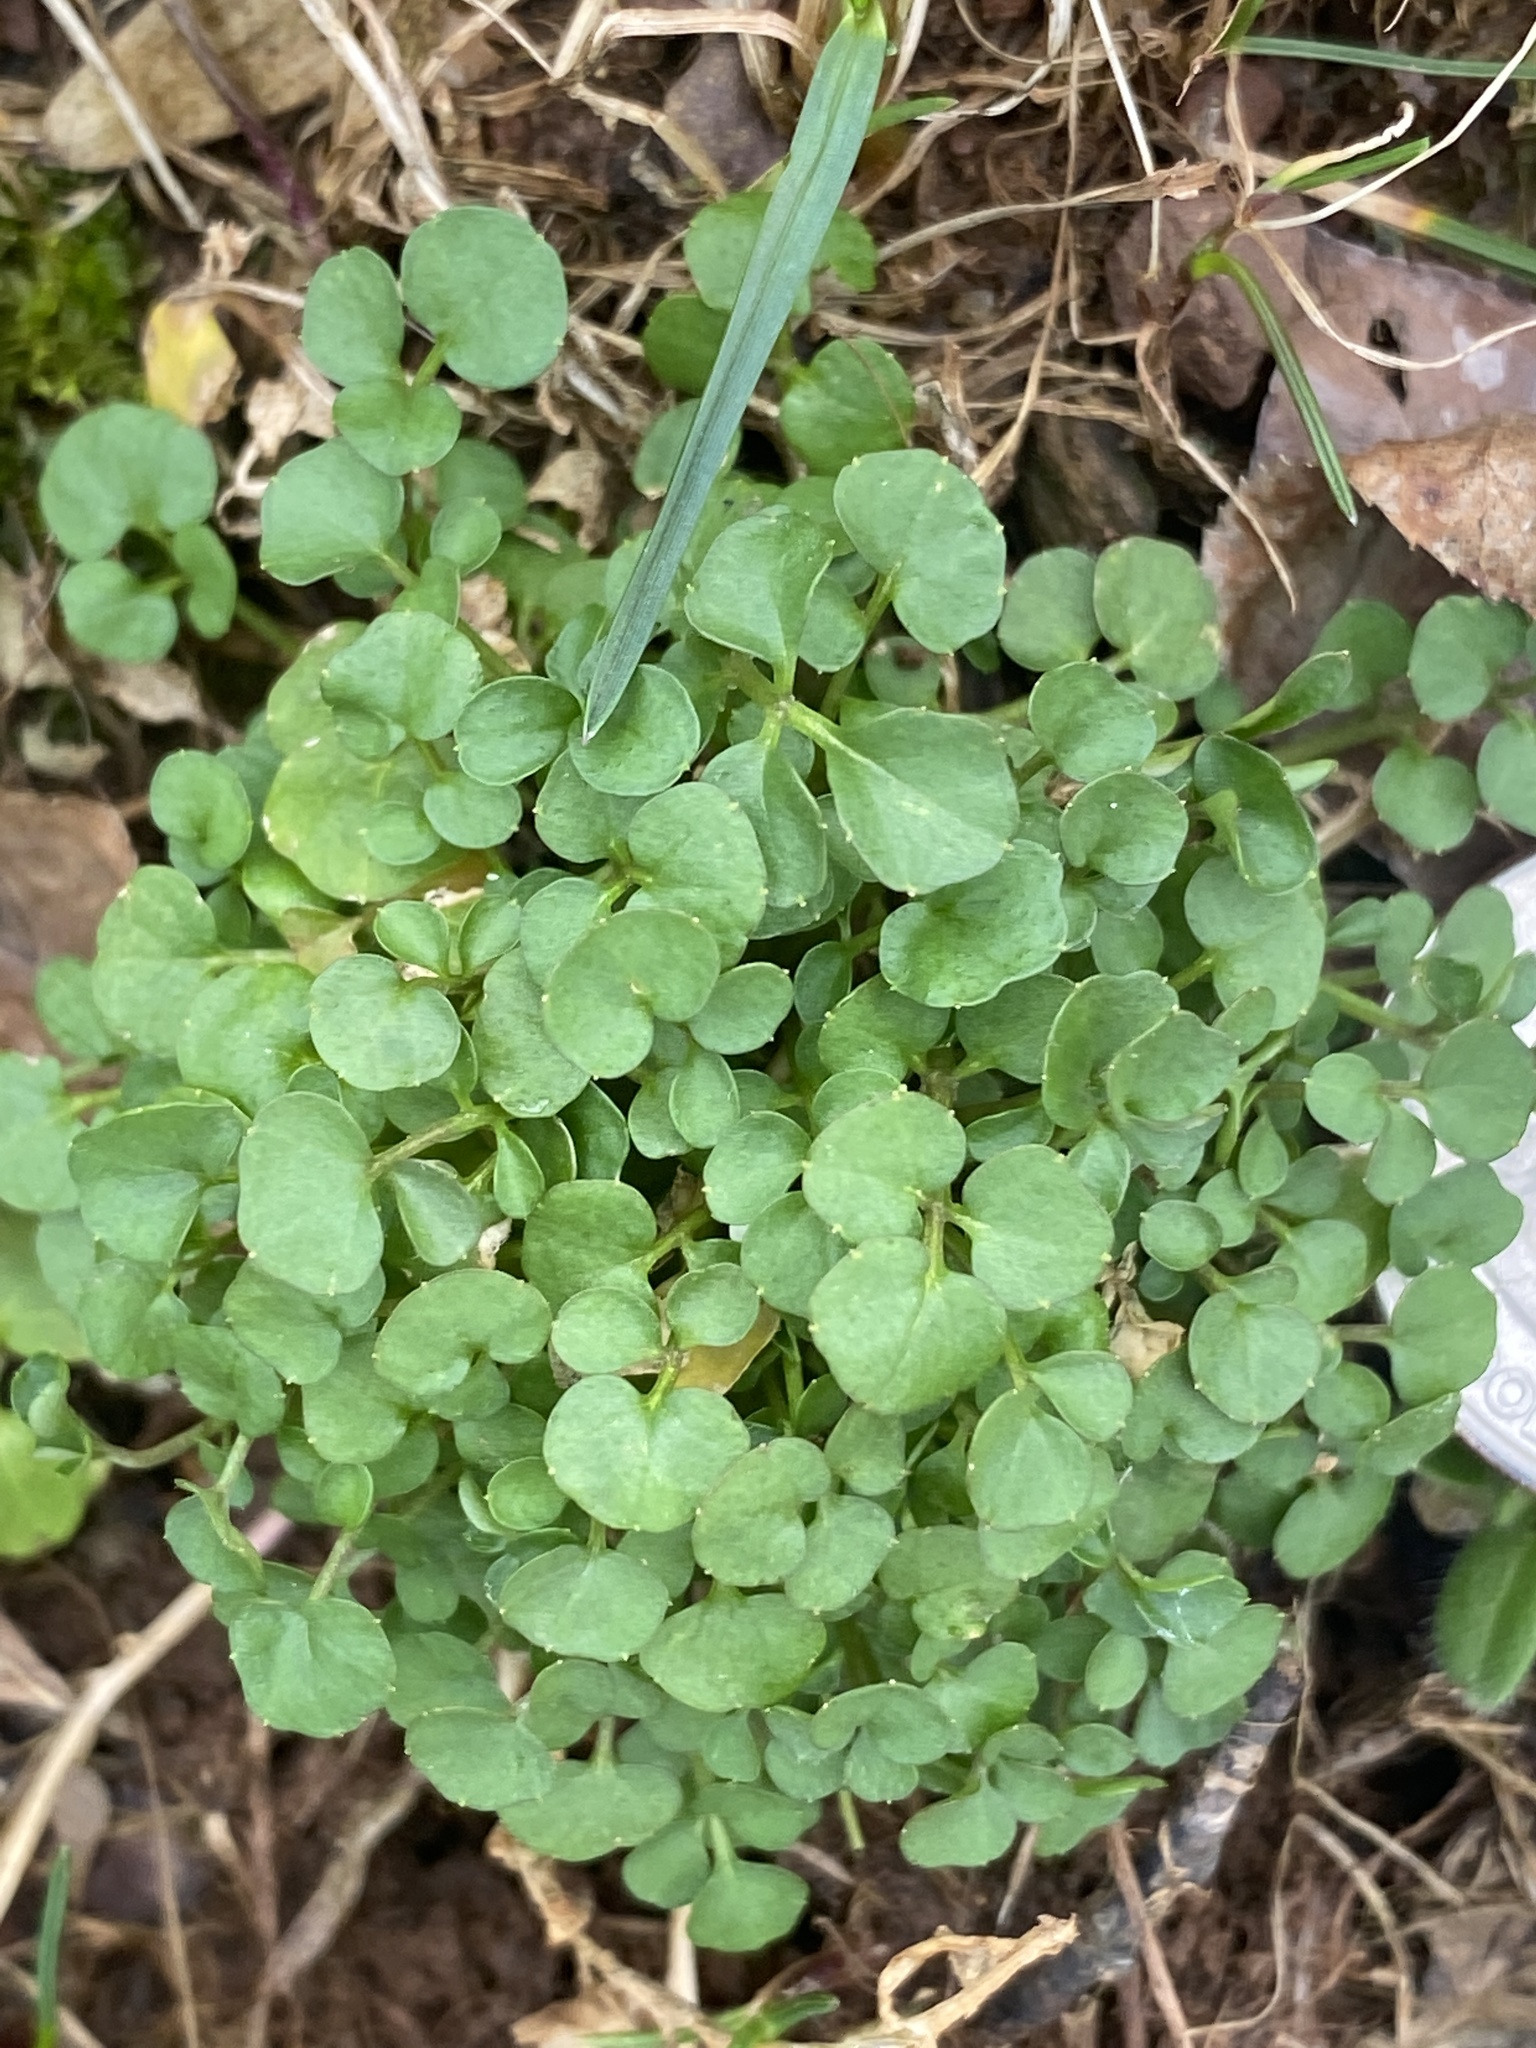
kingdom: Plantae
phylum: Tracheophyta
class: Magnoliopsida
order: Brassicales
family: Brassicaceae
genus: Cardamine
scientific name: Cardamine hirsuta
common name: Hairy bittercress
